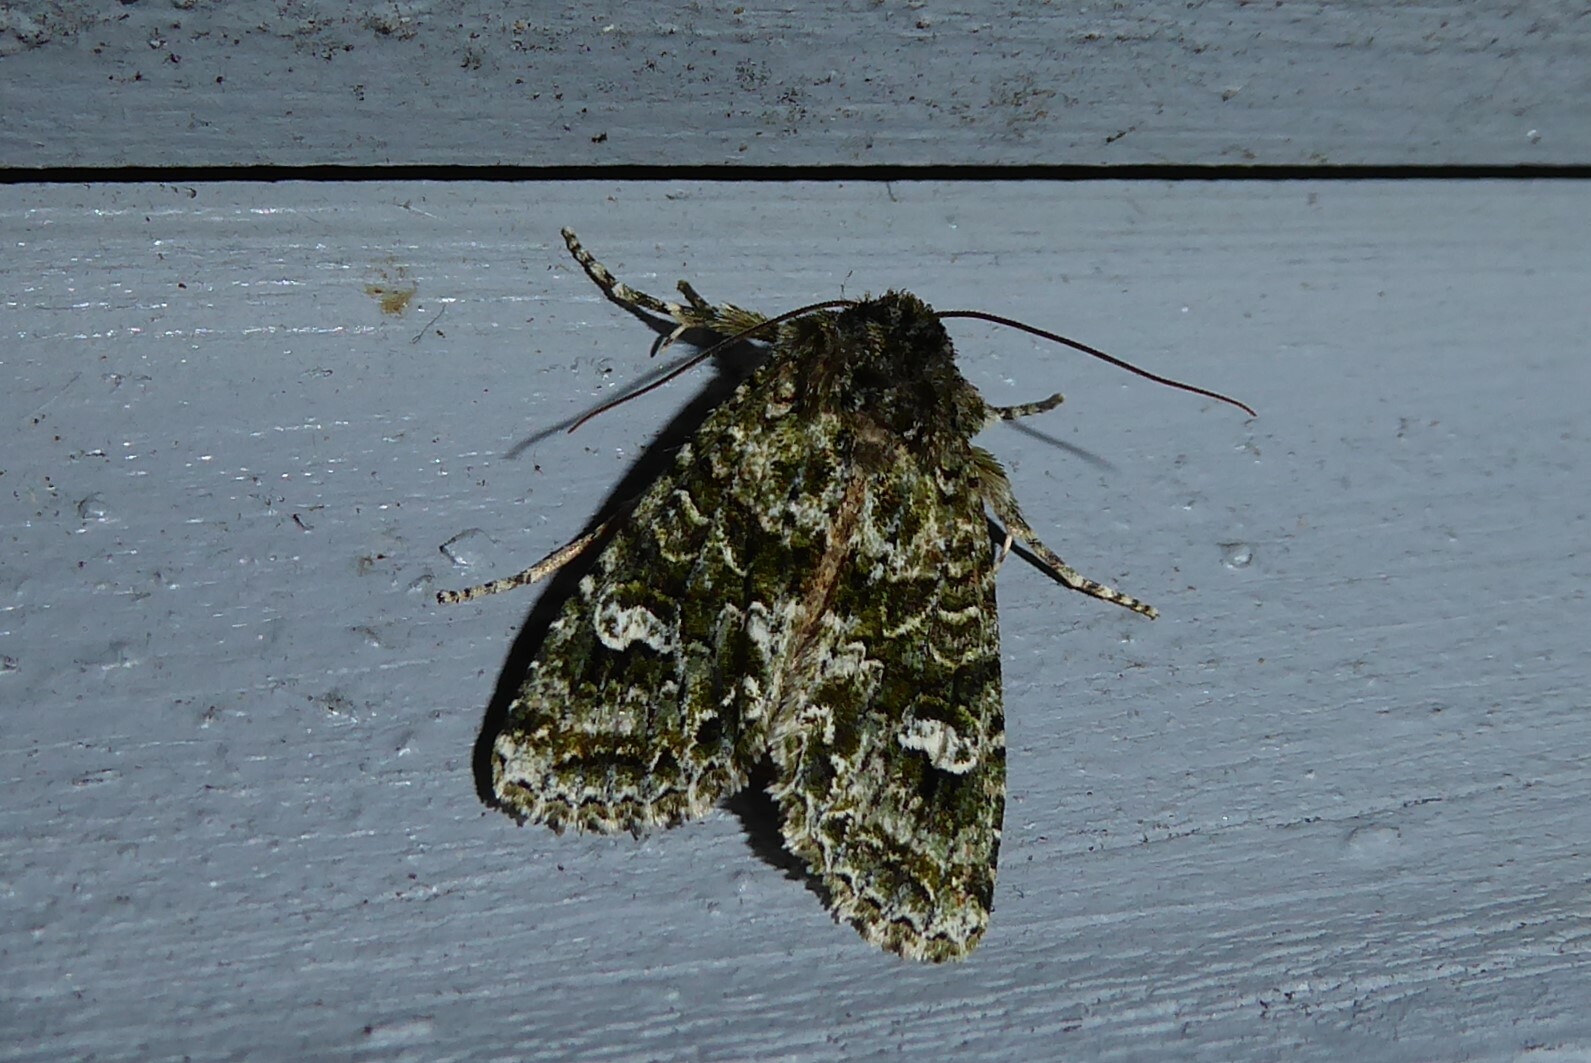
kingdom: Animalia
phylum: Arthropoda
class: Insecta
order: Lepidoptera
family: Noctuidae
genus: Ichneutica
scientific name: Ichneutica
